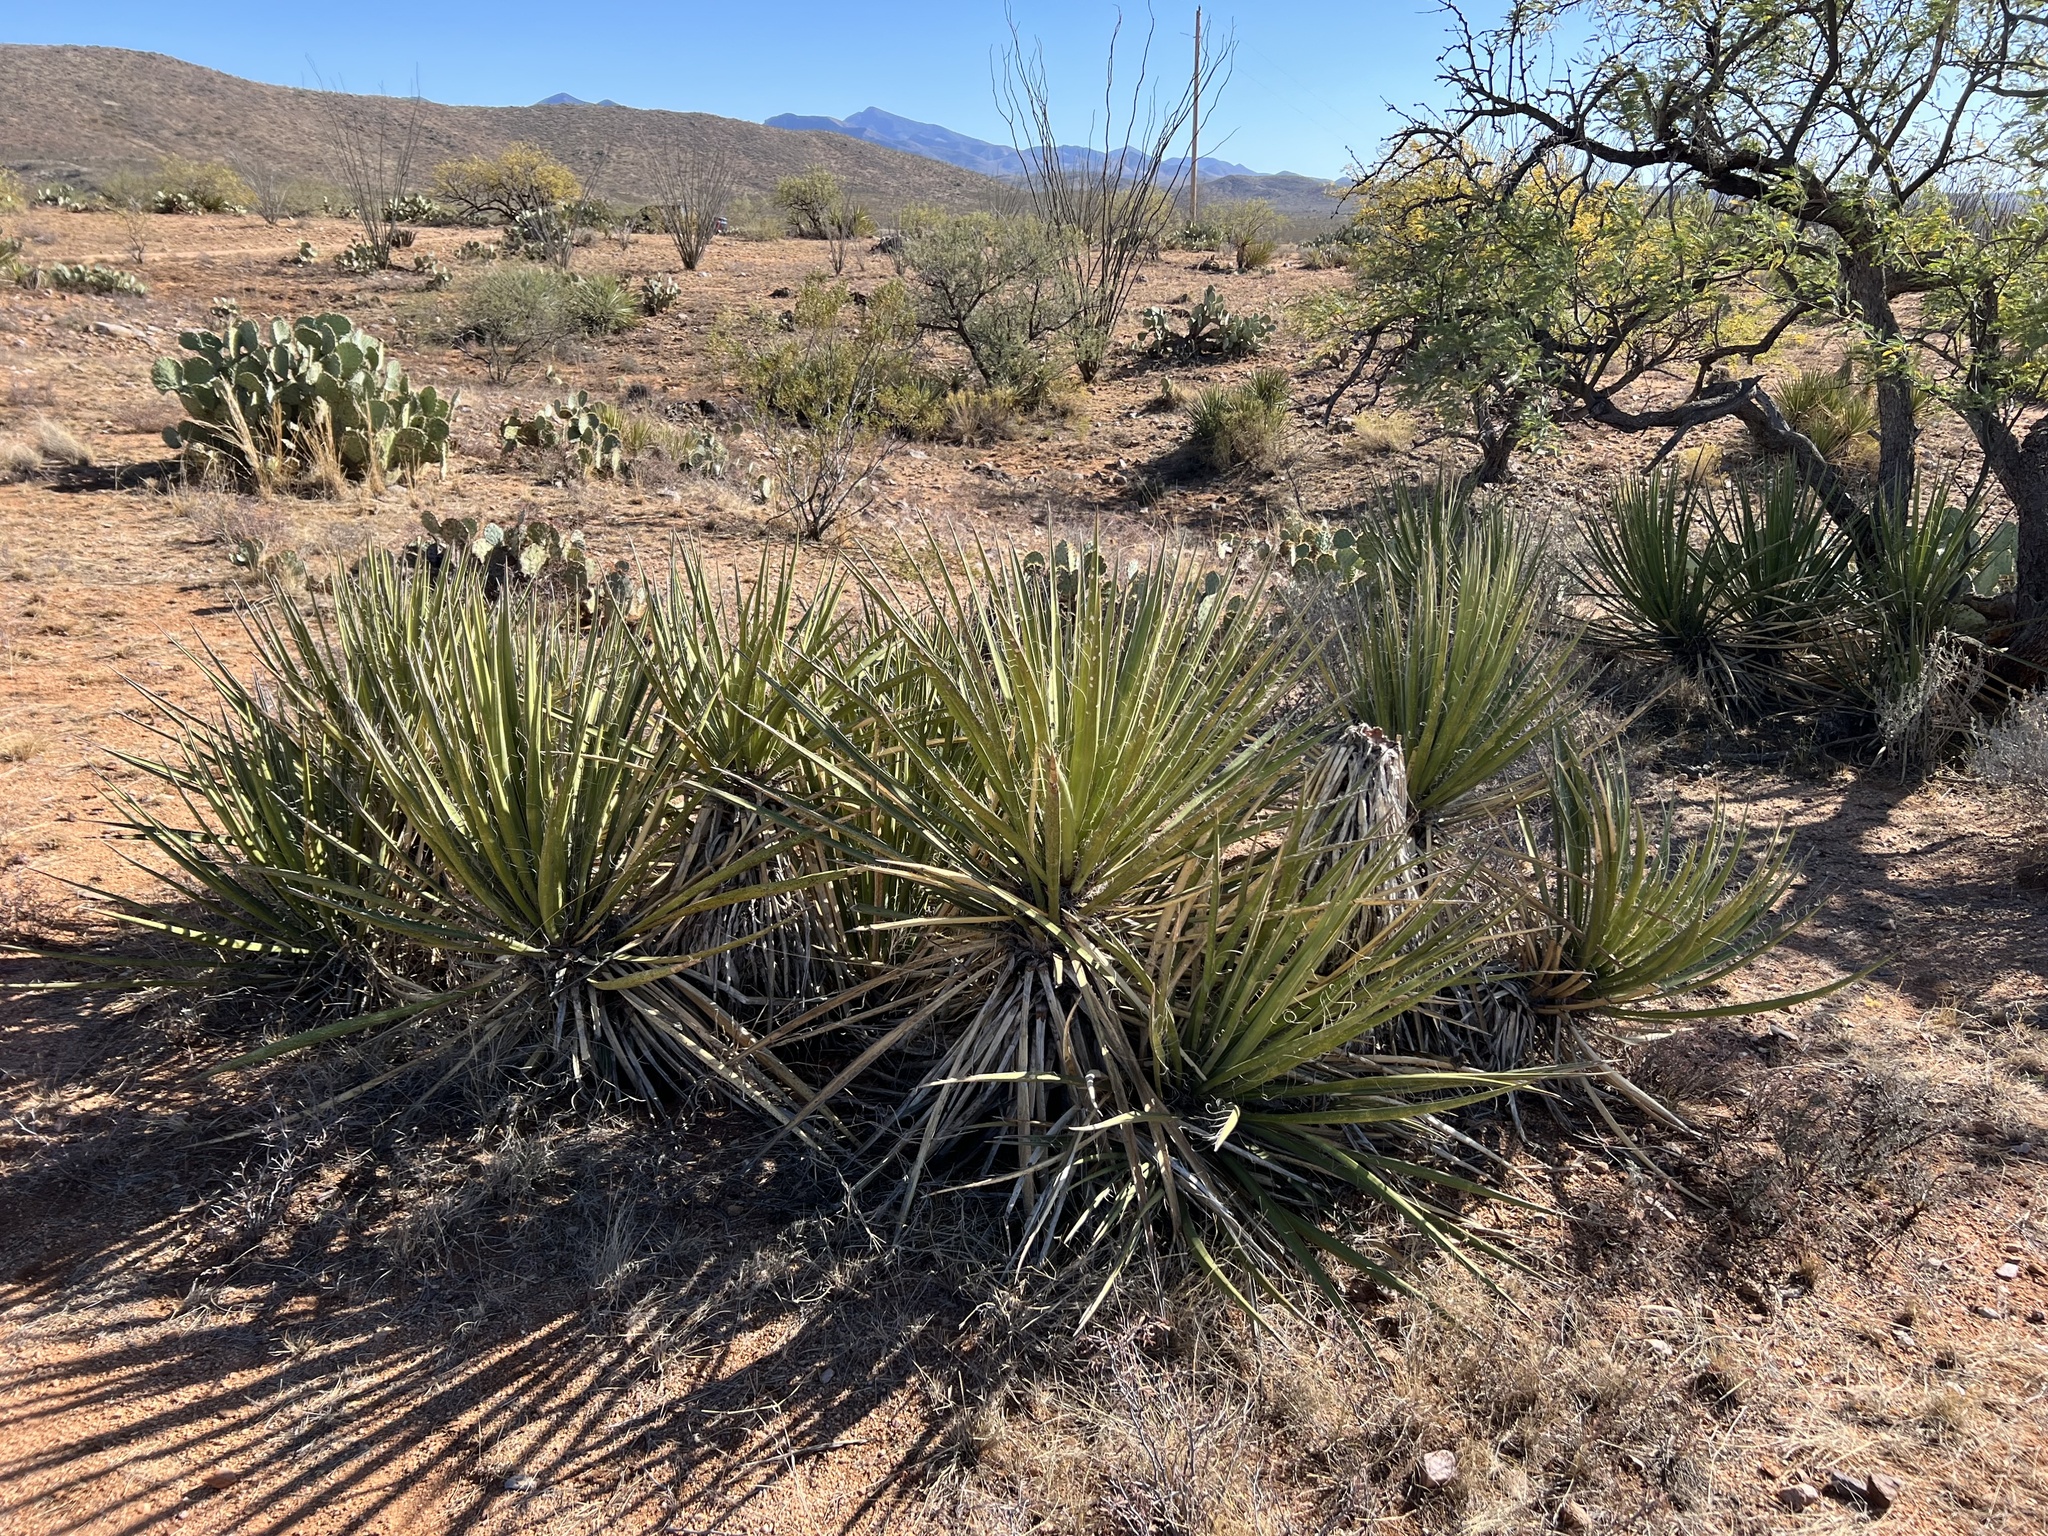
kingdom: Plantae
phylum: Tracheophyta
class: Liliopsida
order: Asparagales
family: Asparagaceae
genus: Yucca
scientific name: Yucca baccata
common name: Banana yucca
